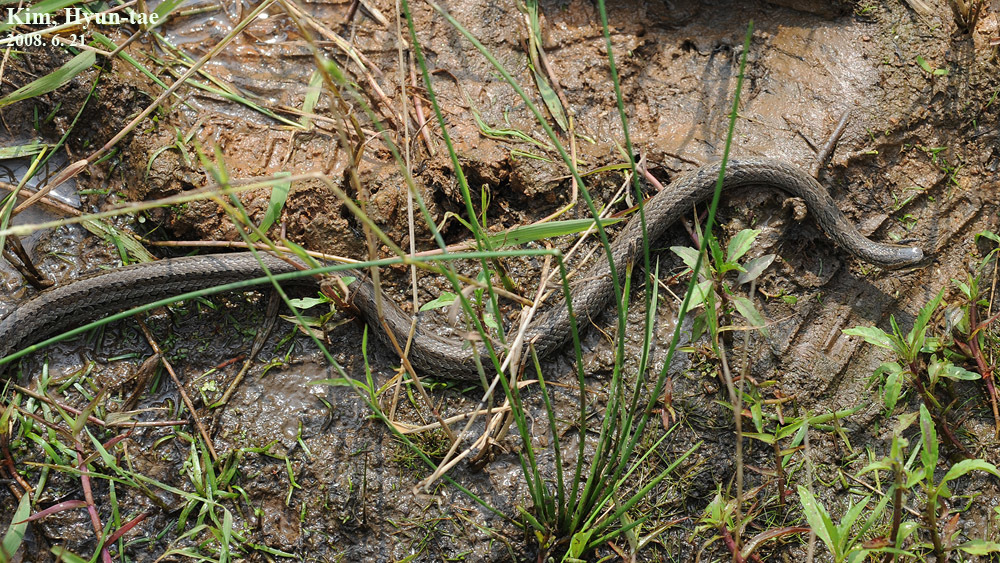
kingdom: Animalia
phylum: Chordata
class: Squamata
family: Colubridae
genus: Oocatochus
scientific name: Oocatochus rufodorsatus
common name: Frog-eating rat snake
